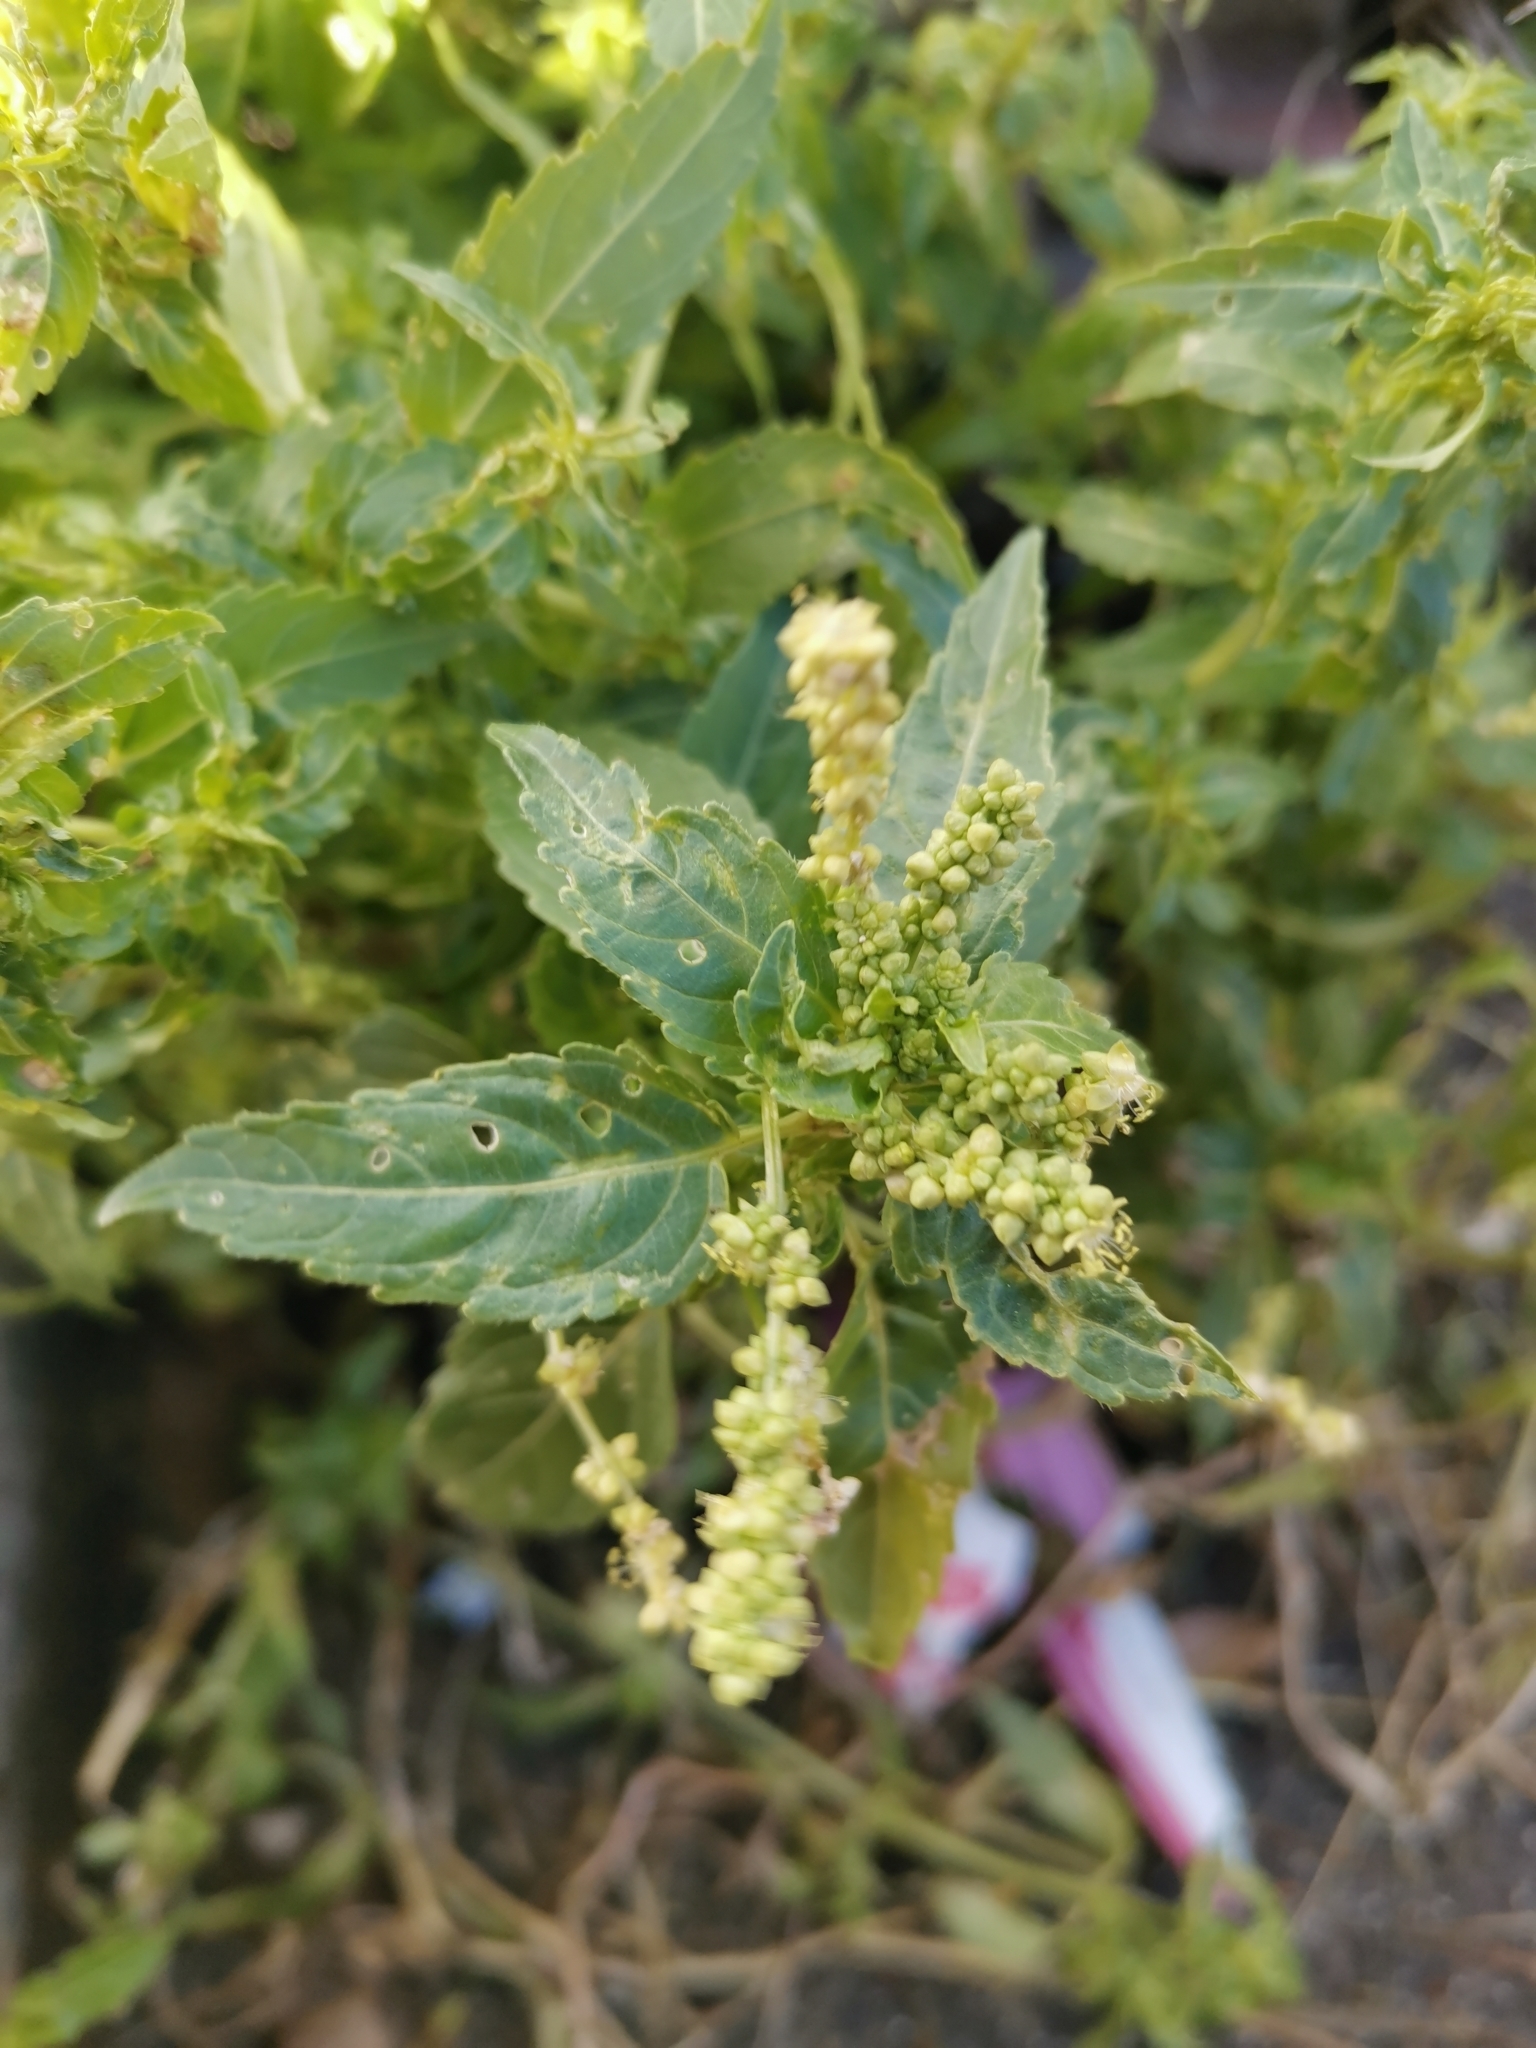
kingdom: Plantae
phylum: Tracheophyta
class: Magnoliopsida
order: Malpighiales
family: Euphorbiaceae
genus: Mercurialis
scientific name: Mercurialis annua
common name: Annual mercury
